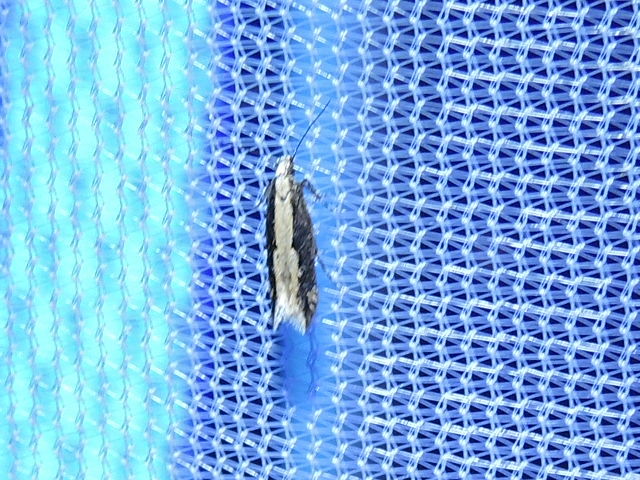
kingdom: Animalia
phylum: Arthropoda
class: Insecta
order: Lepidoptera
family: Gelechiidae
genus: Aristotelia
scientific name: Aristotelia corallina
